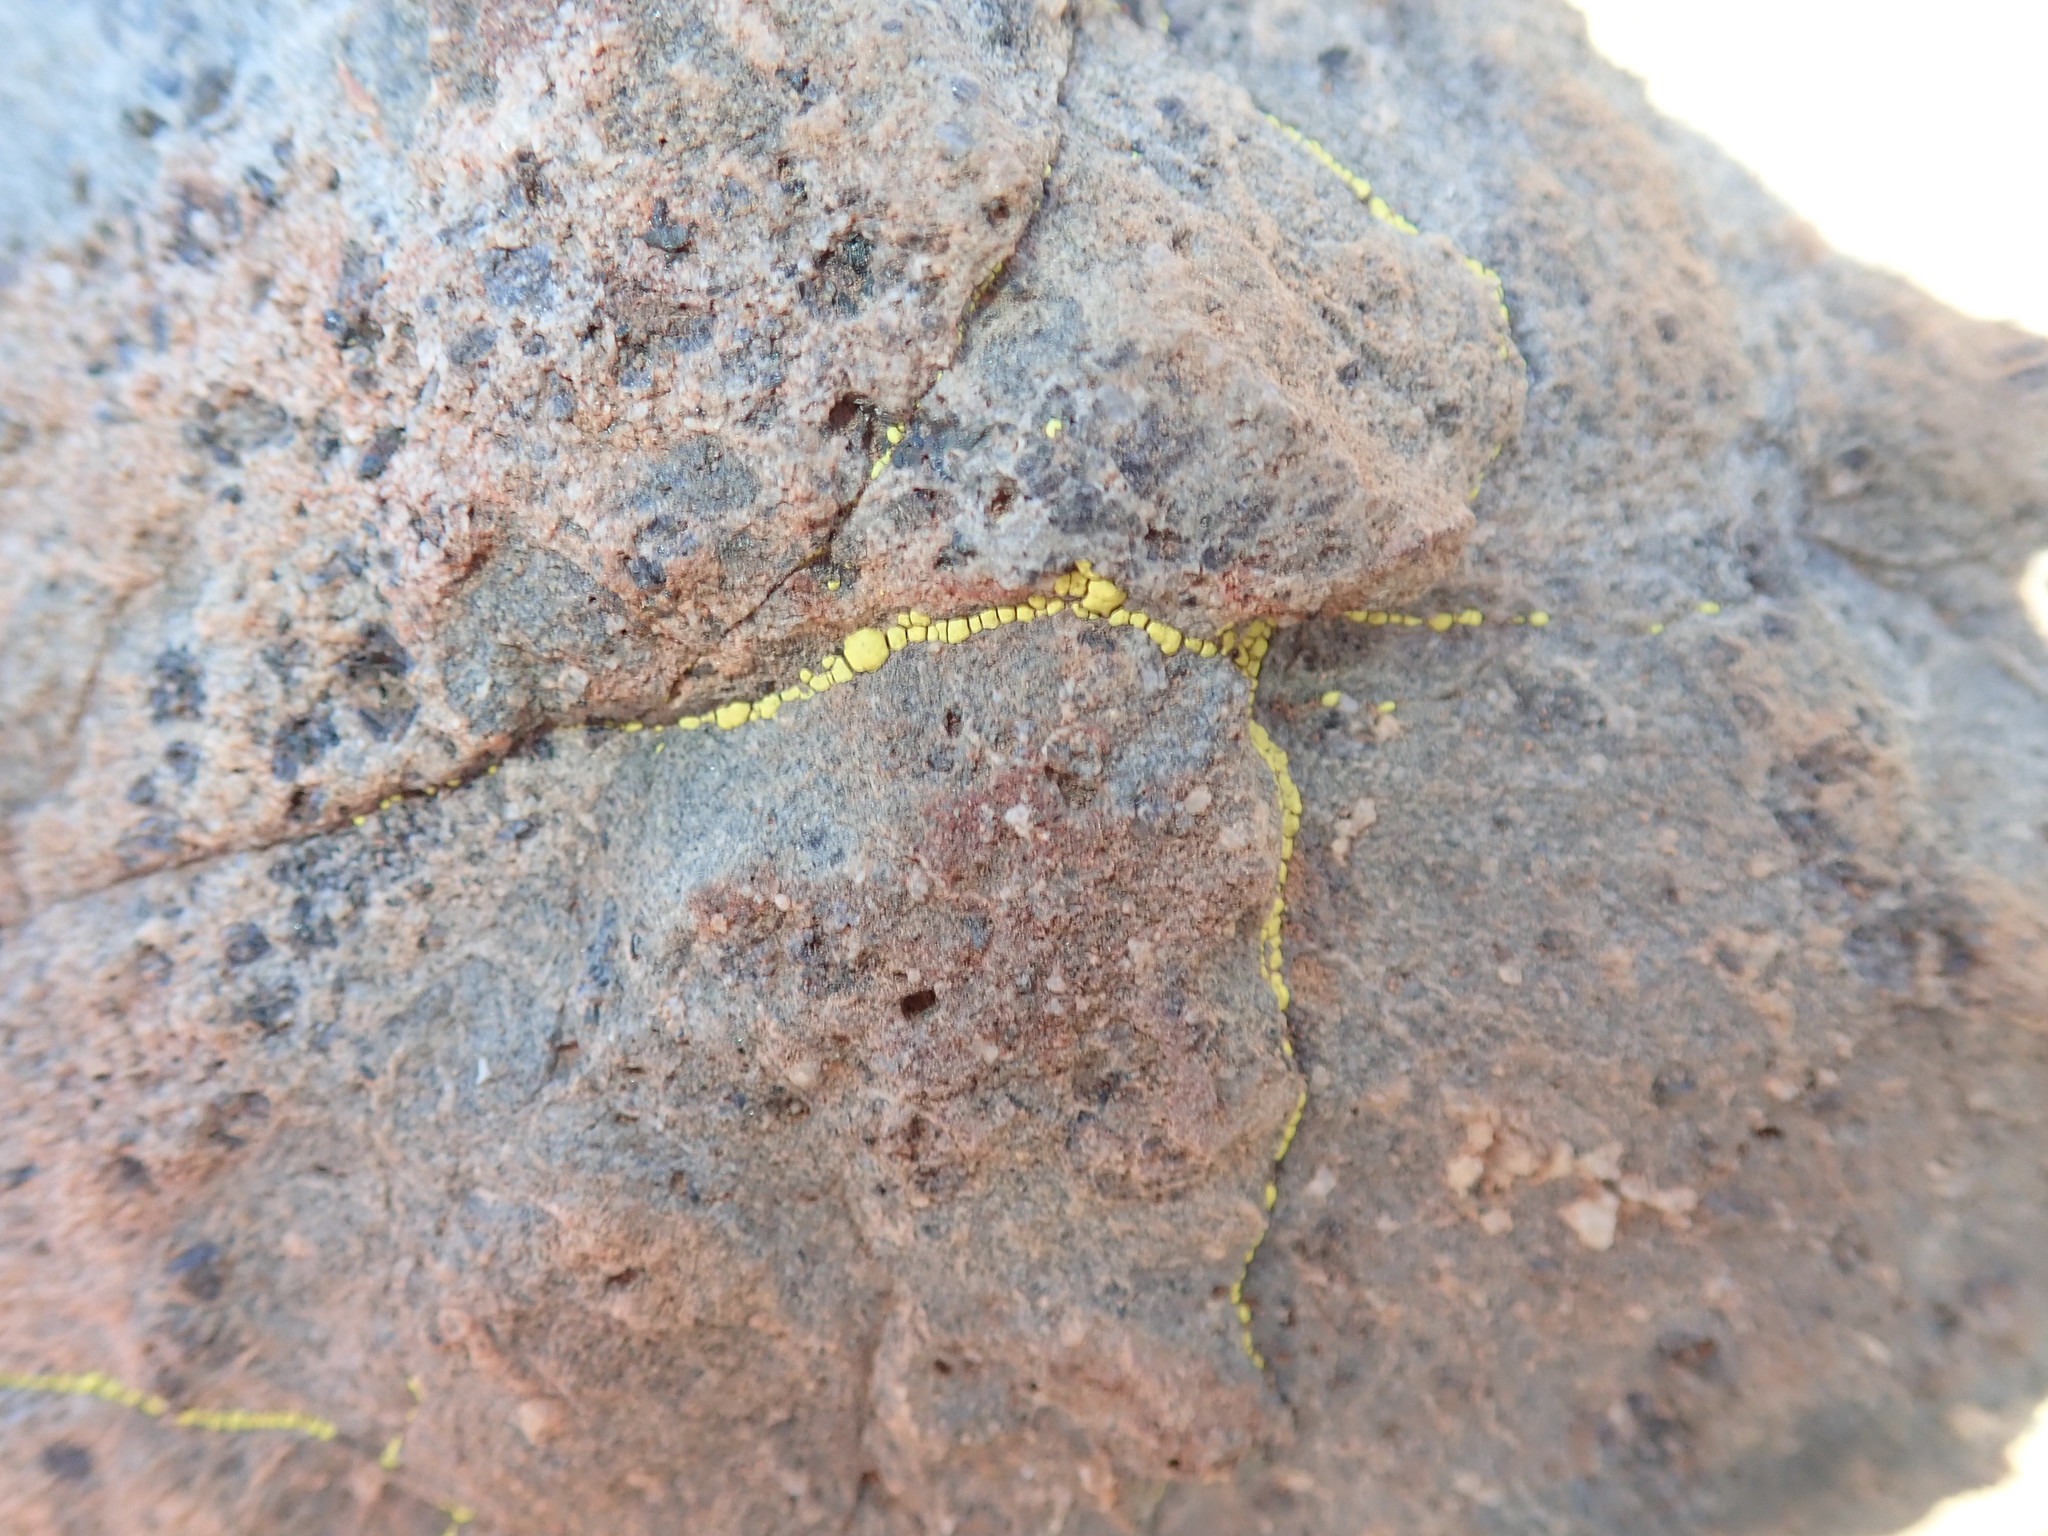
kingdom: Fungi
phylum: Ascomycota
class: Lecanoromycetes
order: Acarosporales
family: Acarosporaceae
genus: Acarospora
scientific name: Acarospora socialis
